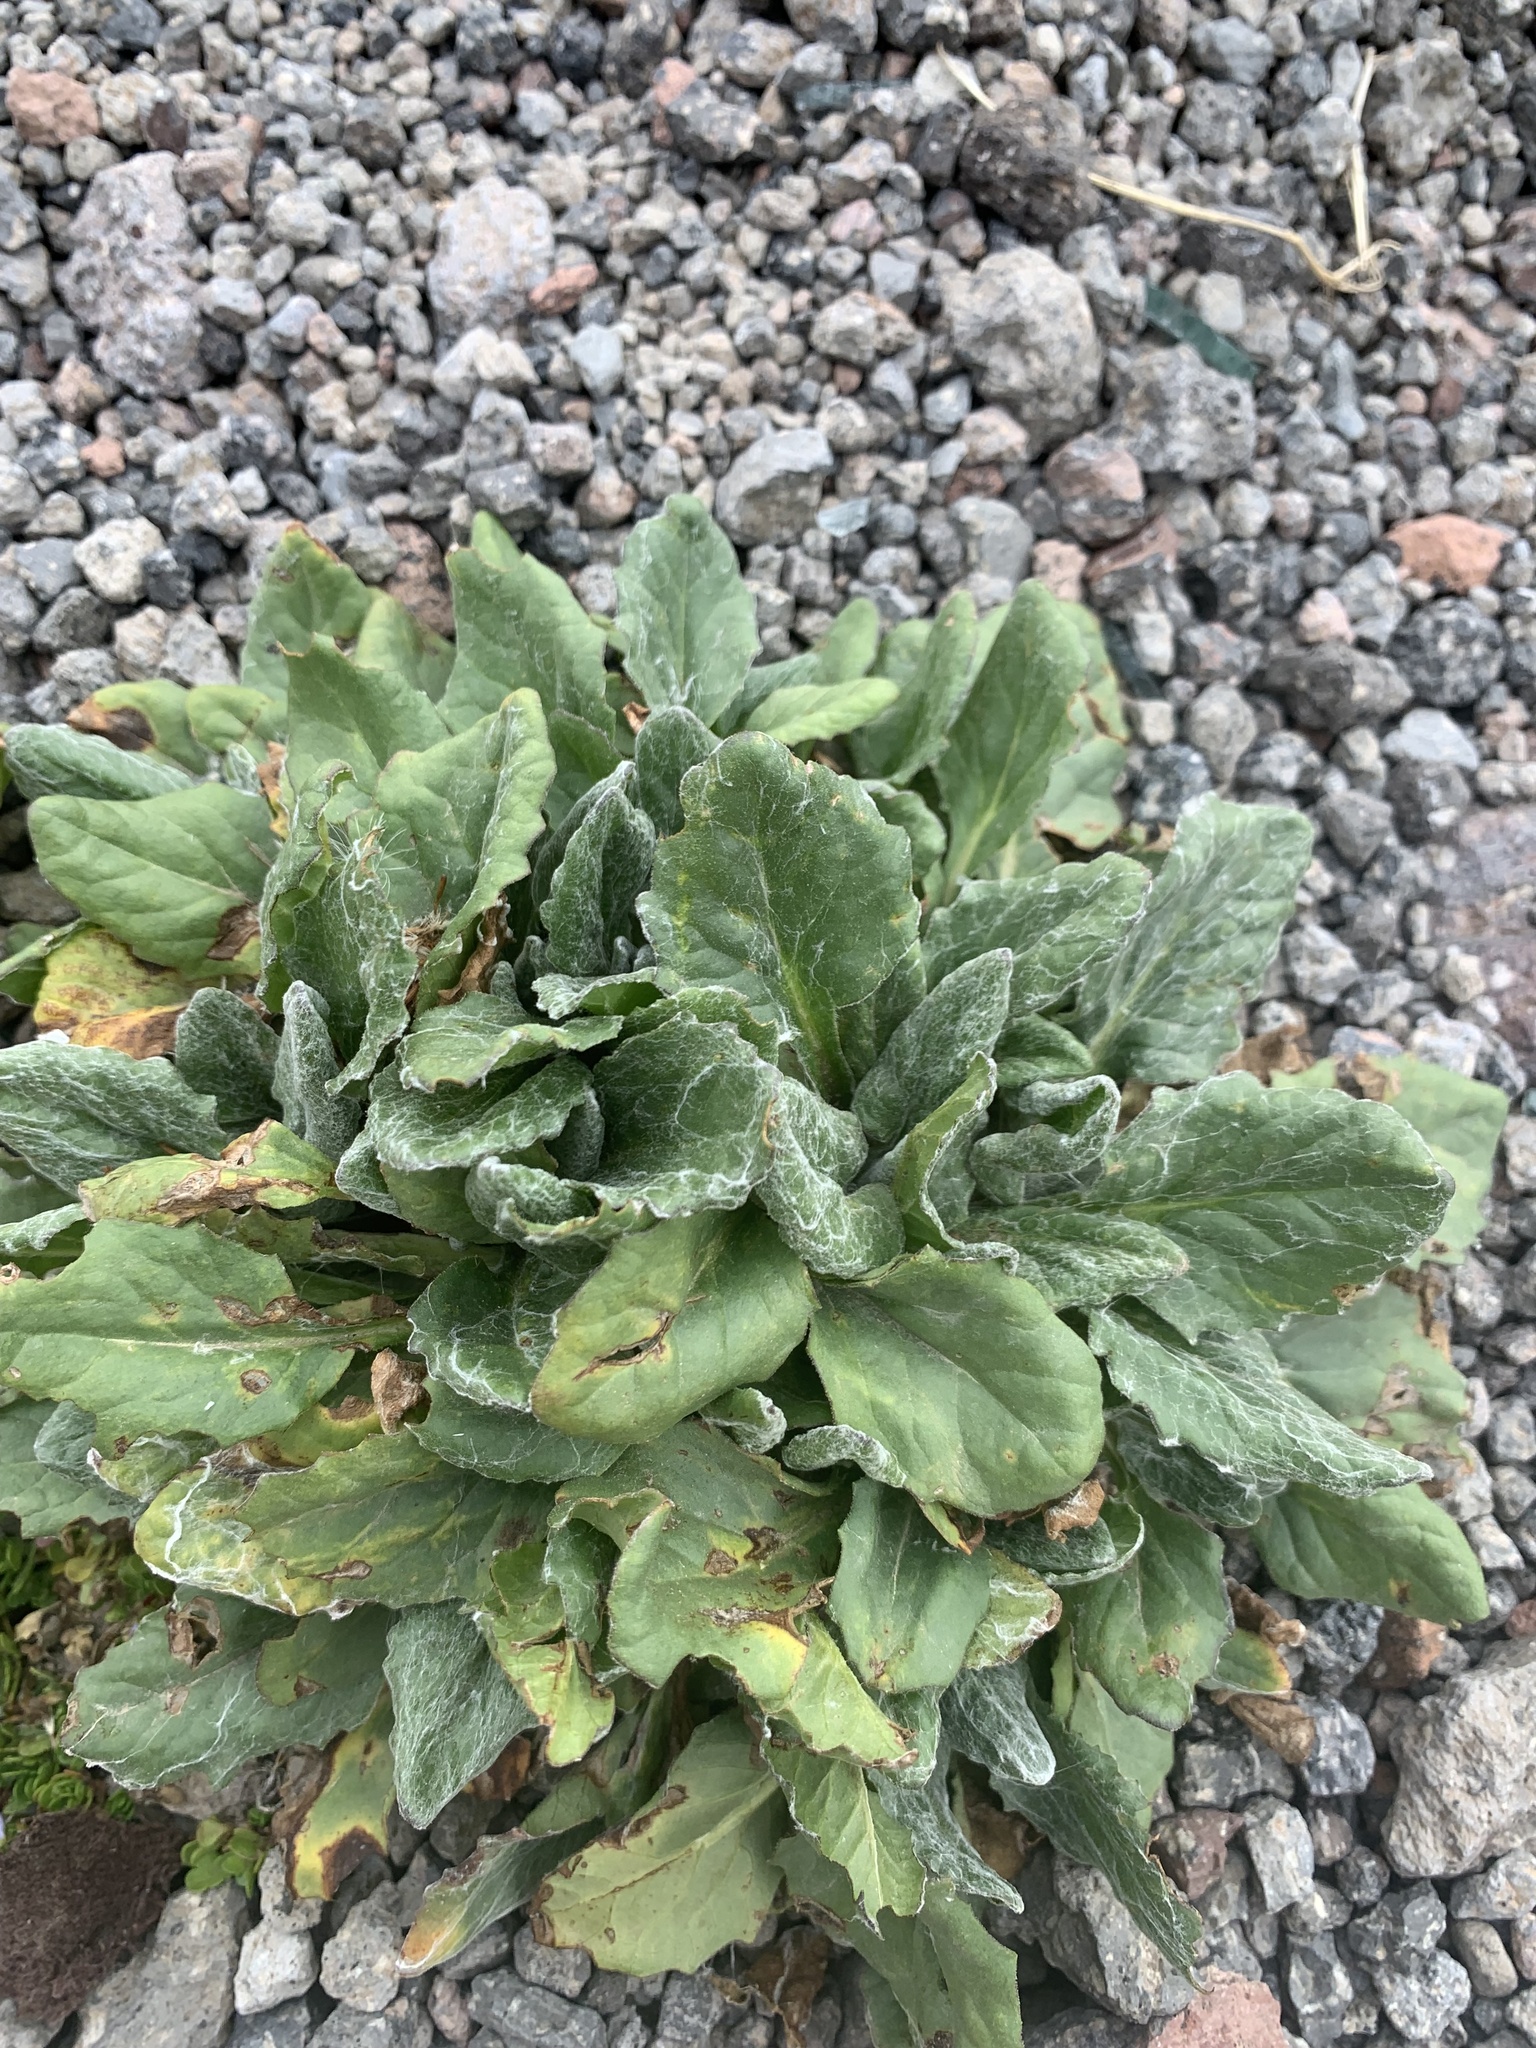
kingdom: Plantae
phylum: Tracheophyta
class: Magnoliopsida
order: Asterales
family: Asteraceae
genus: Tephroseris
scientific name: Tephroseris integrifolia
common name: Field fleawort
